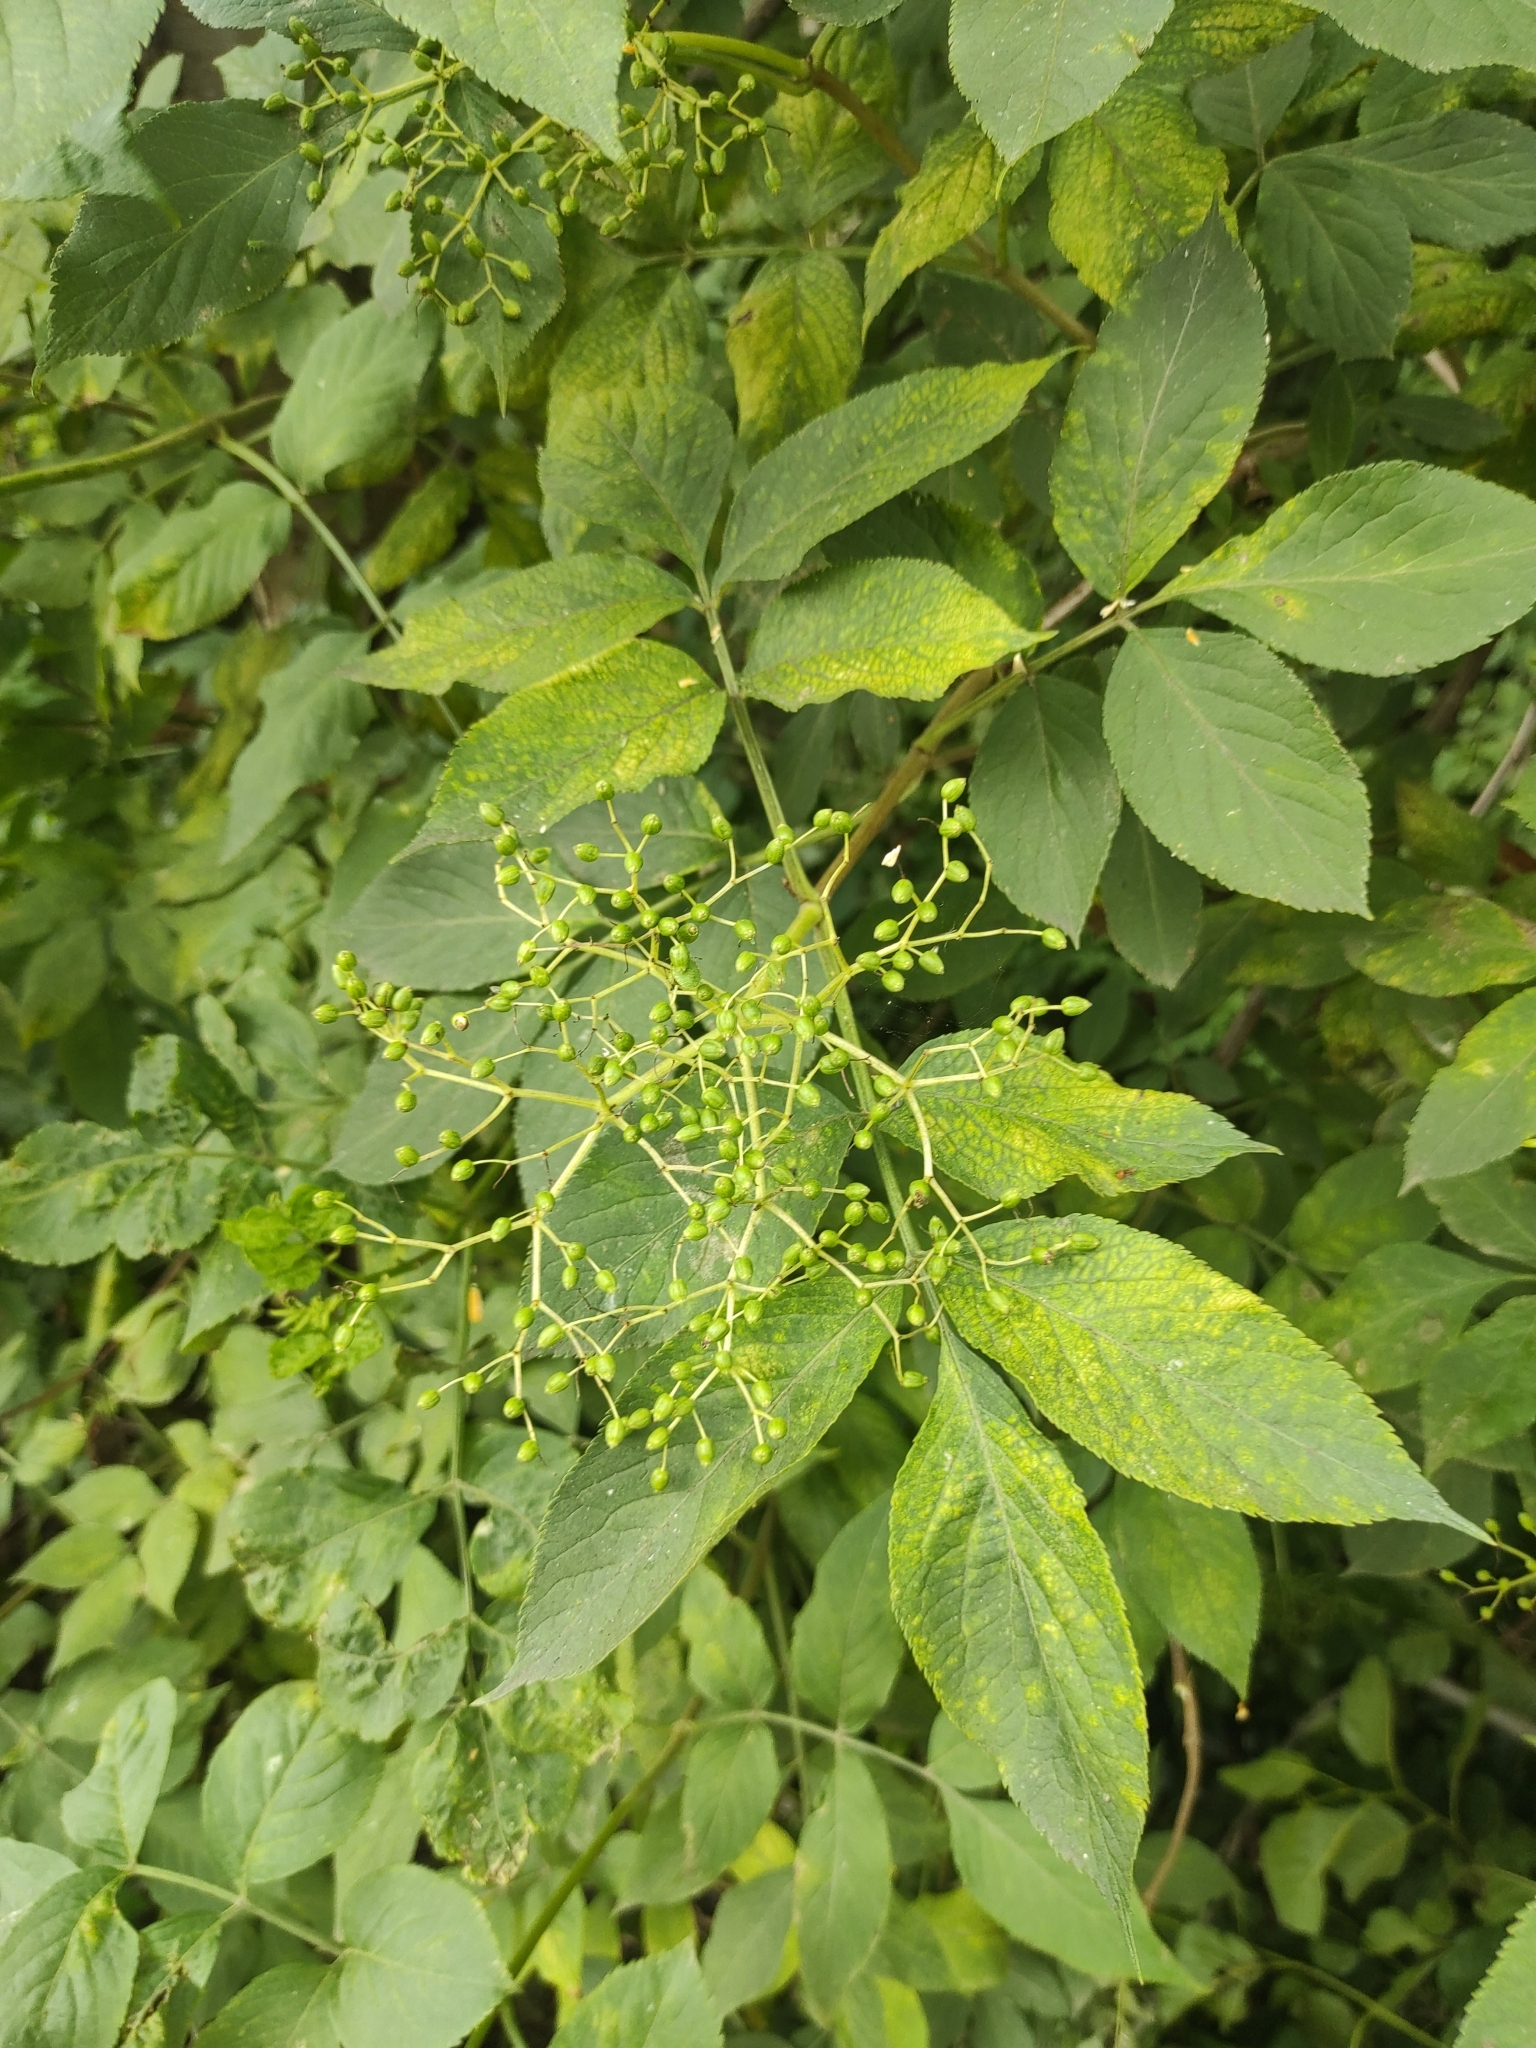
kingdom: Plantae
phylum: Tracheophyta
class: Magnoliopsida
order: Dipsacales
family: Viburnaceae
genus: Sambucus
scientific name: Sambucus nigra
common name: Elder
